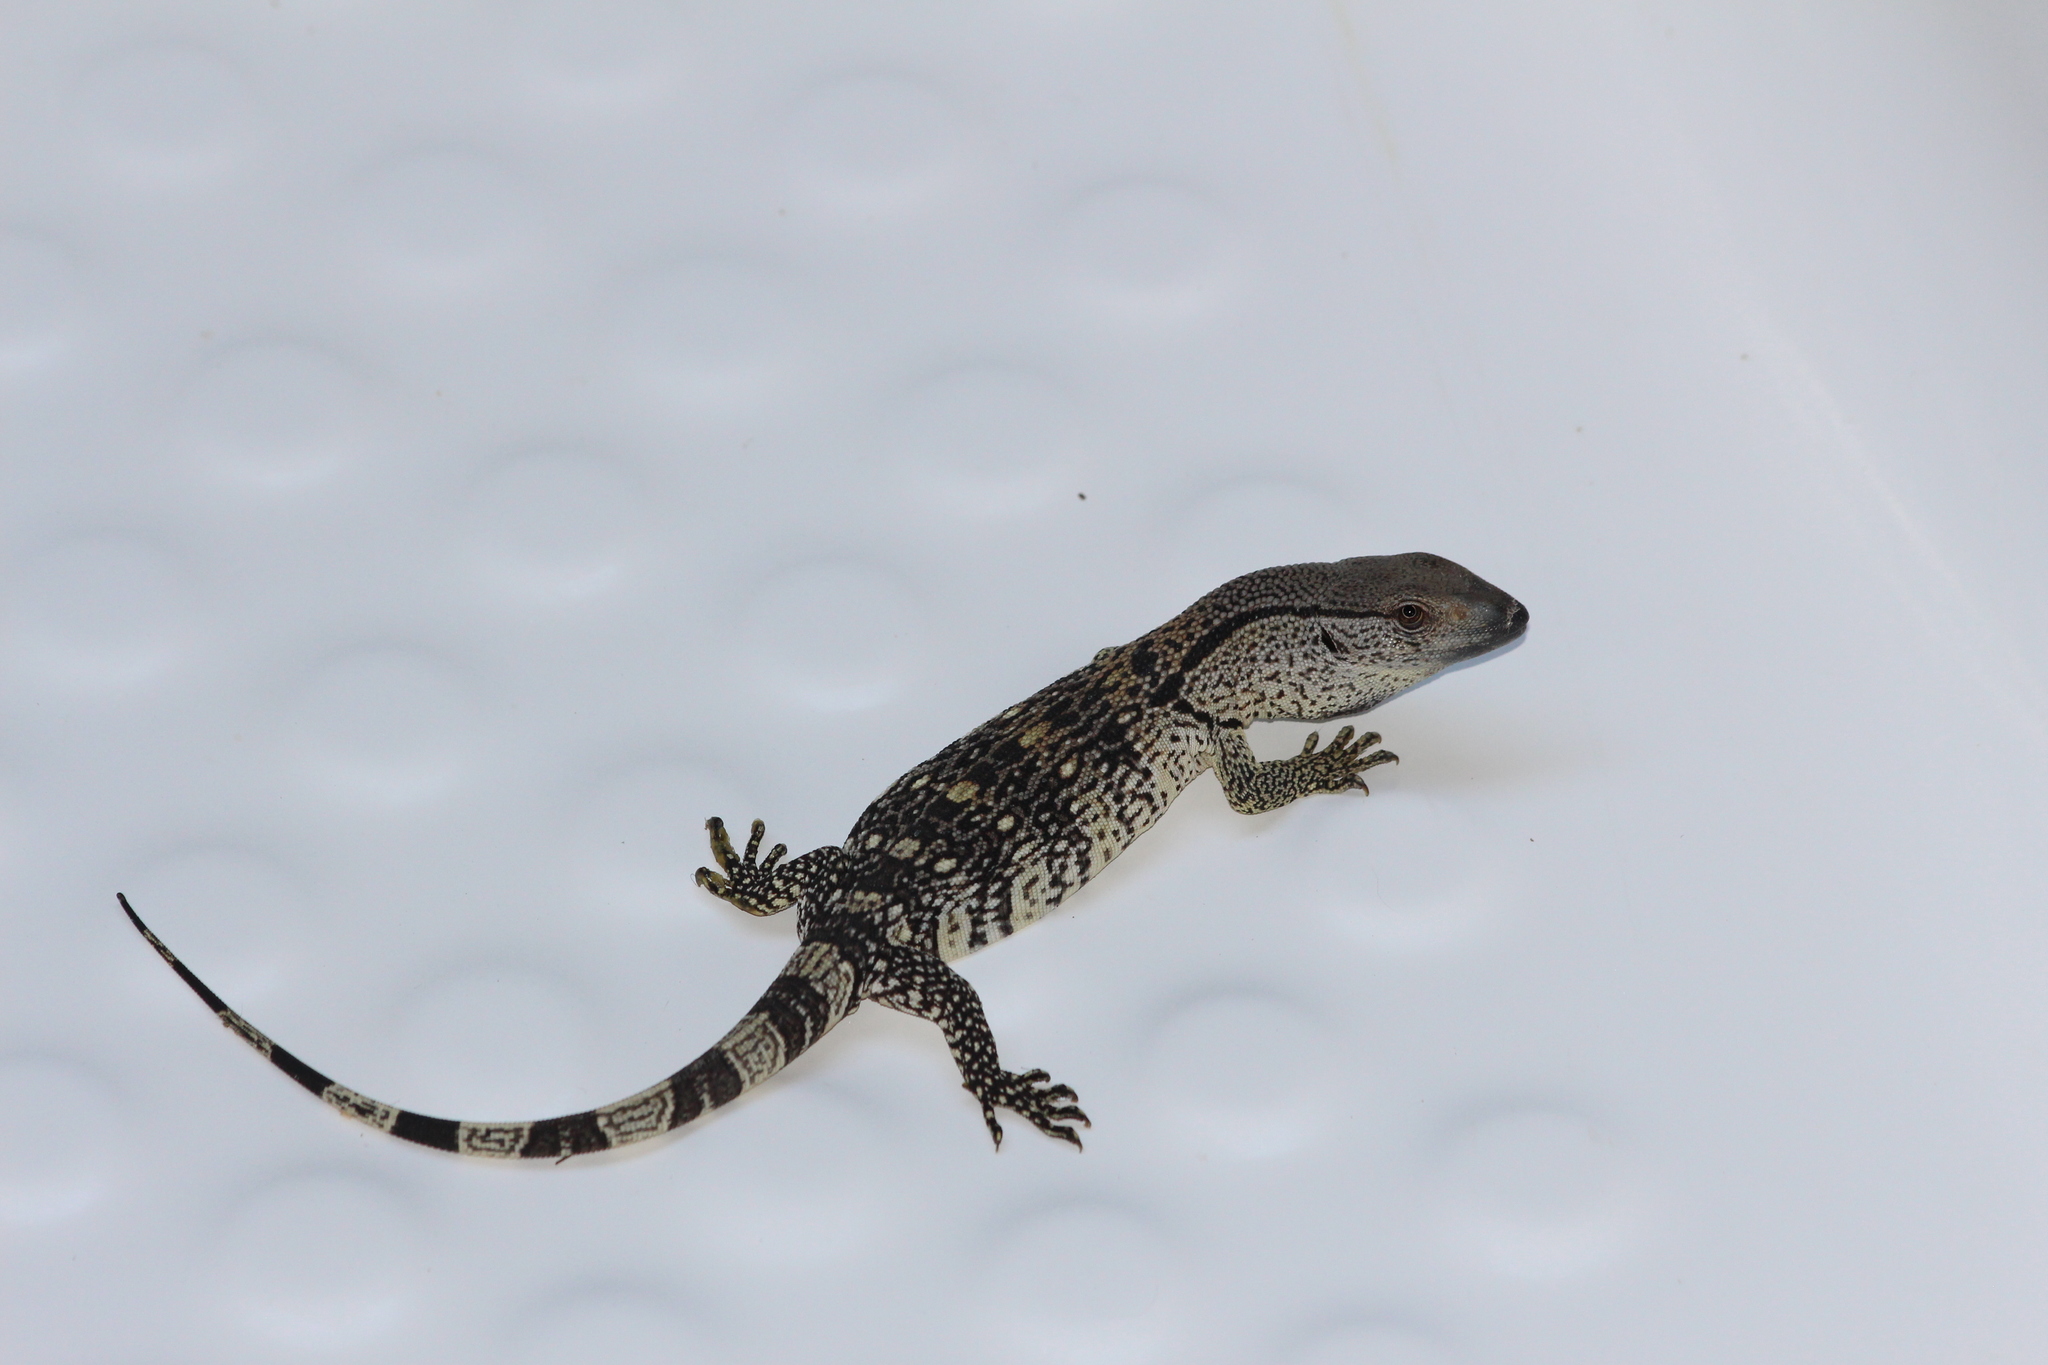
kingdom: Animalia
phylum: Chordata
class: Squamata
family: Varanidae
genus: Varanus
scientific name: Varanus albigularis
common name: White-throated monitor
